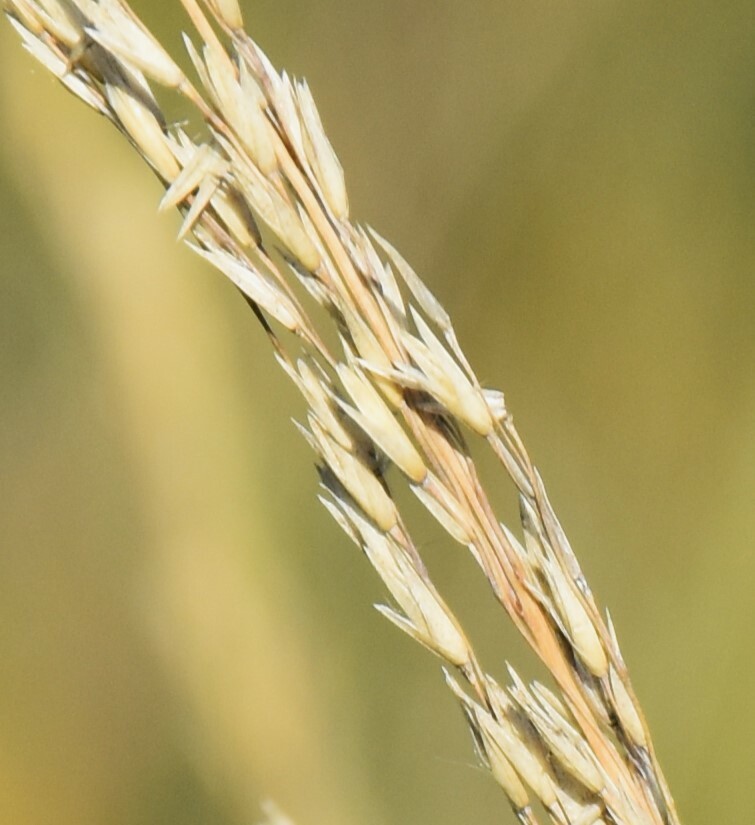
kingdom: Plantae
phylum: Tracheophyta
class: Liliopsida
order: Poales
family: Poaceae
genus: Sporobolus
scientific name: Sporobolus rigidus
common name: Prairie sandreed
